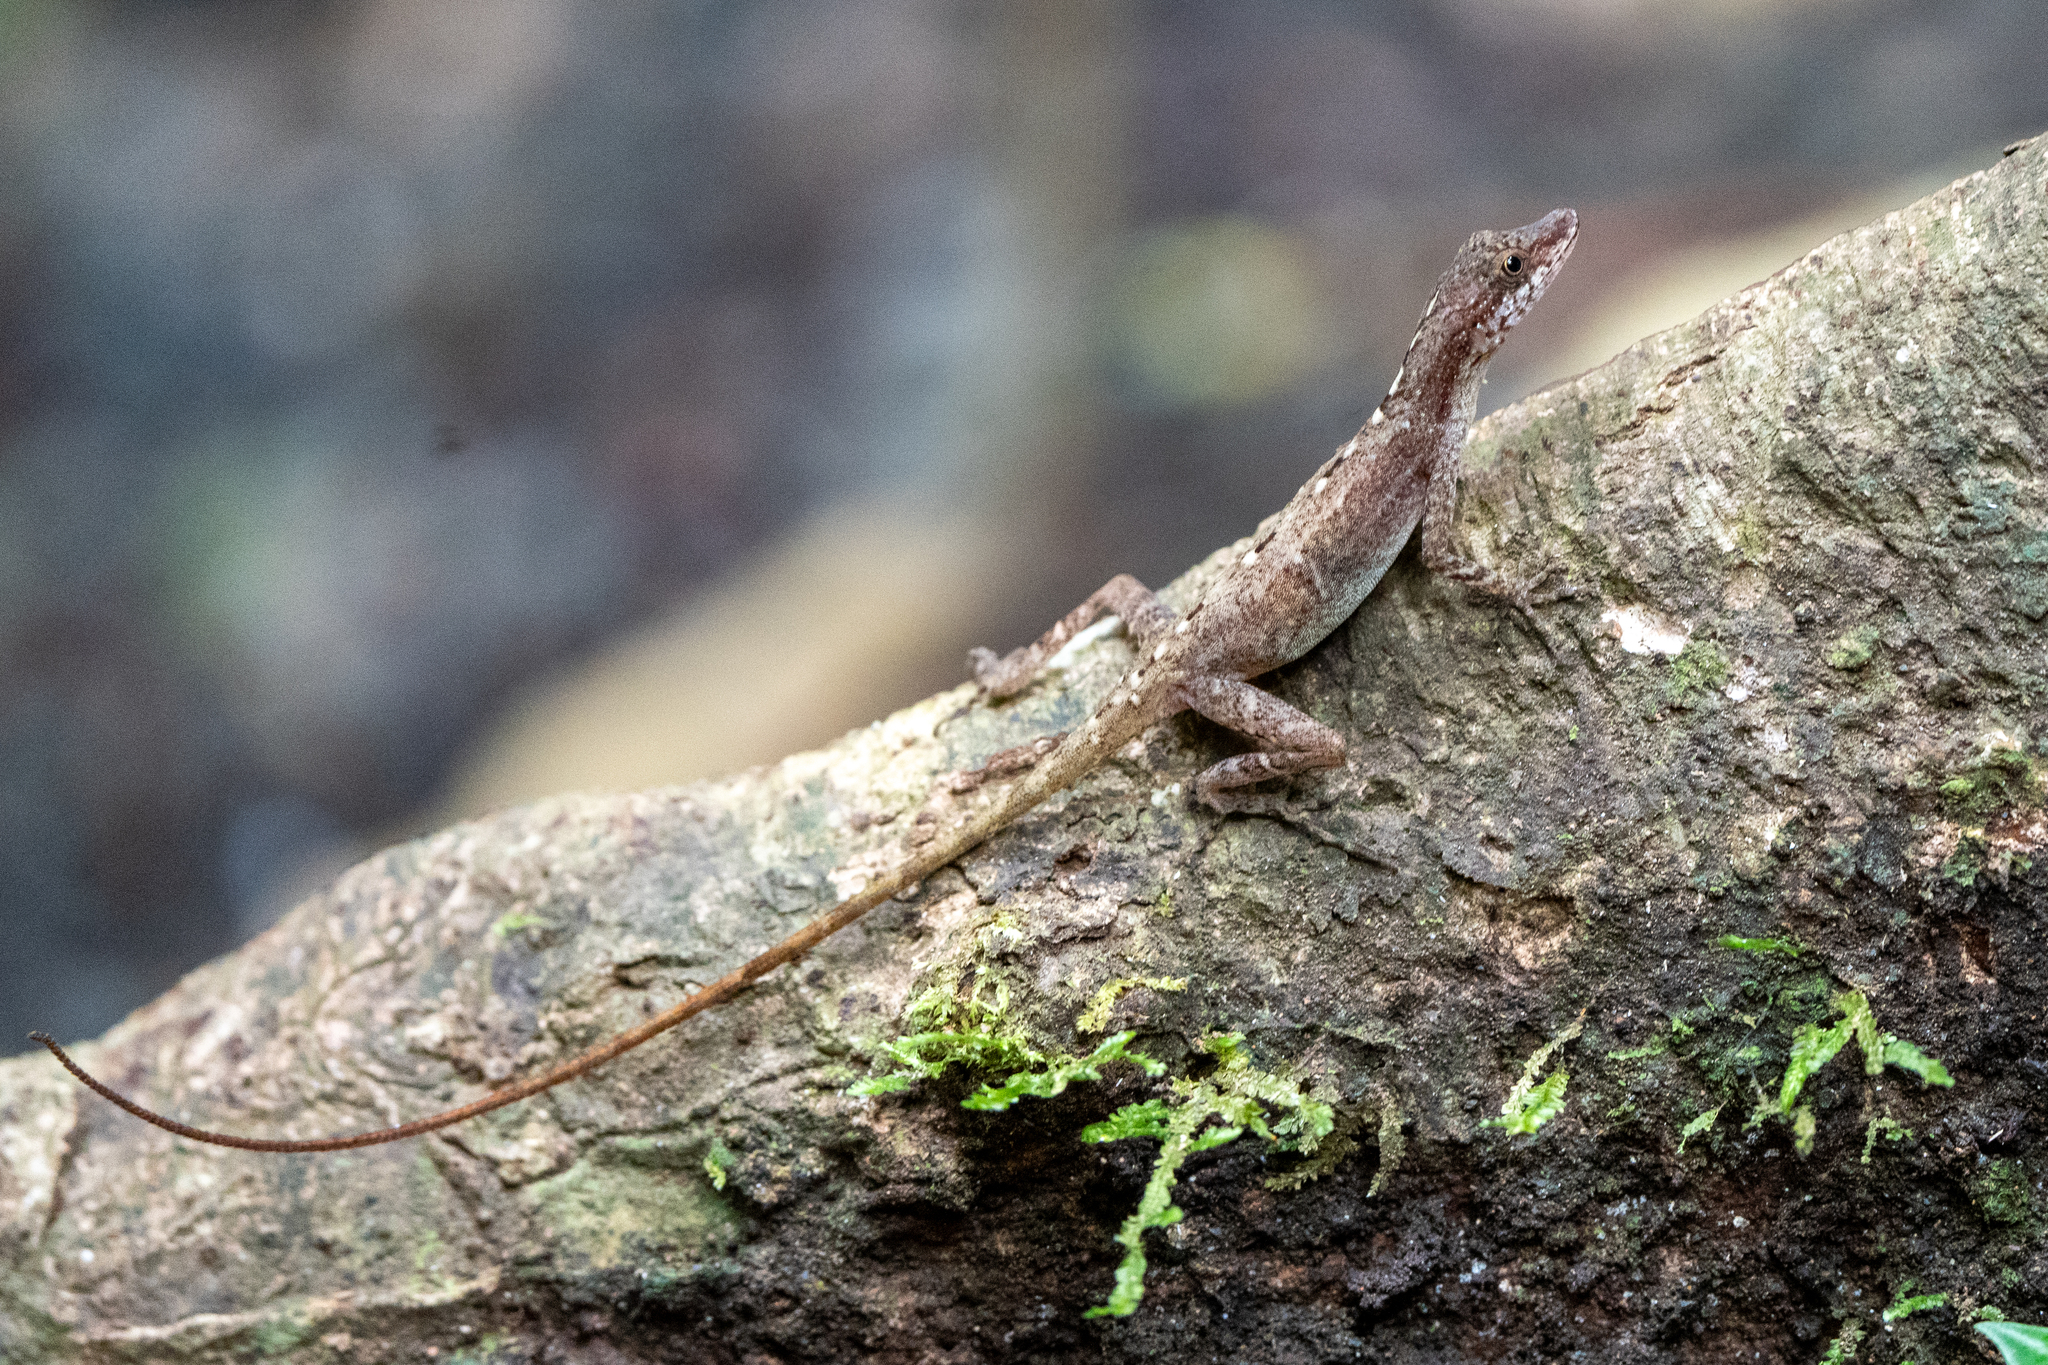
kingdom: Animalia
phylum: Chordata
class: Squamata
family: Dactyloidae
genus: Anolis
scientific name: Anolis limifrons
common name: Border anole
